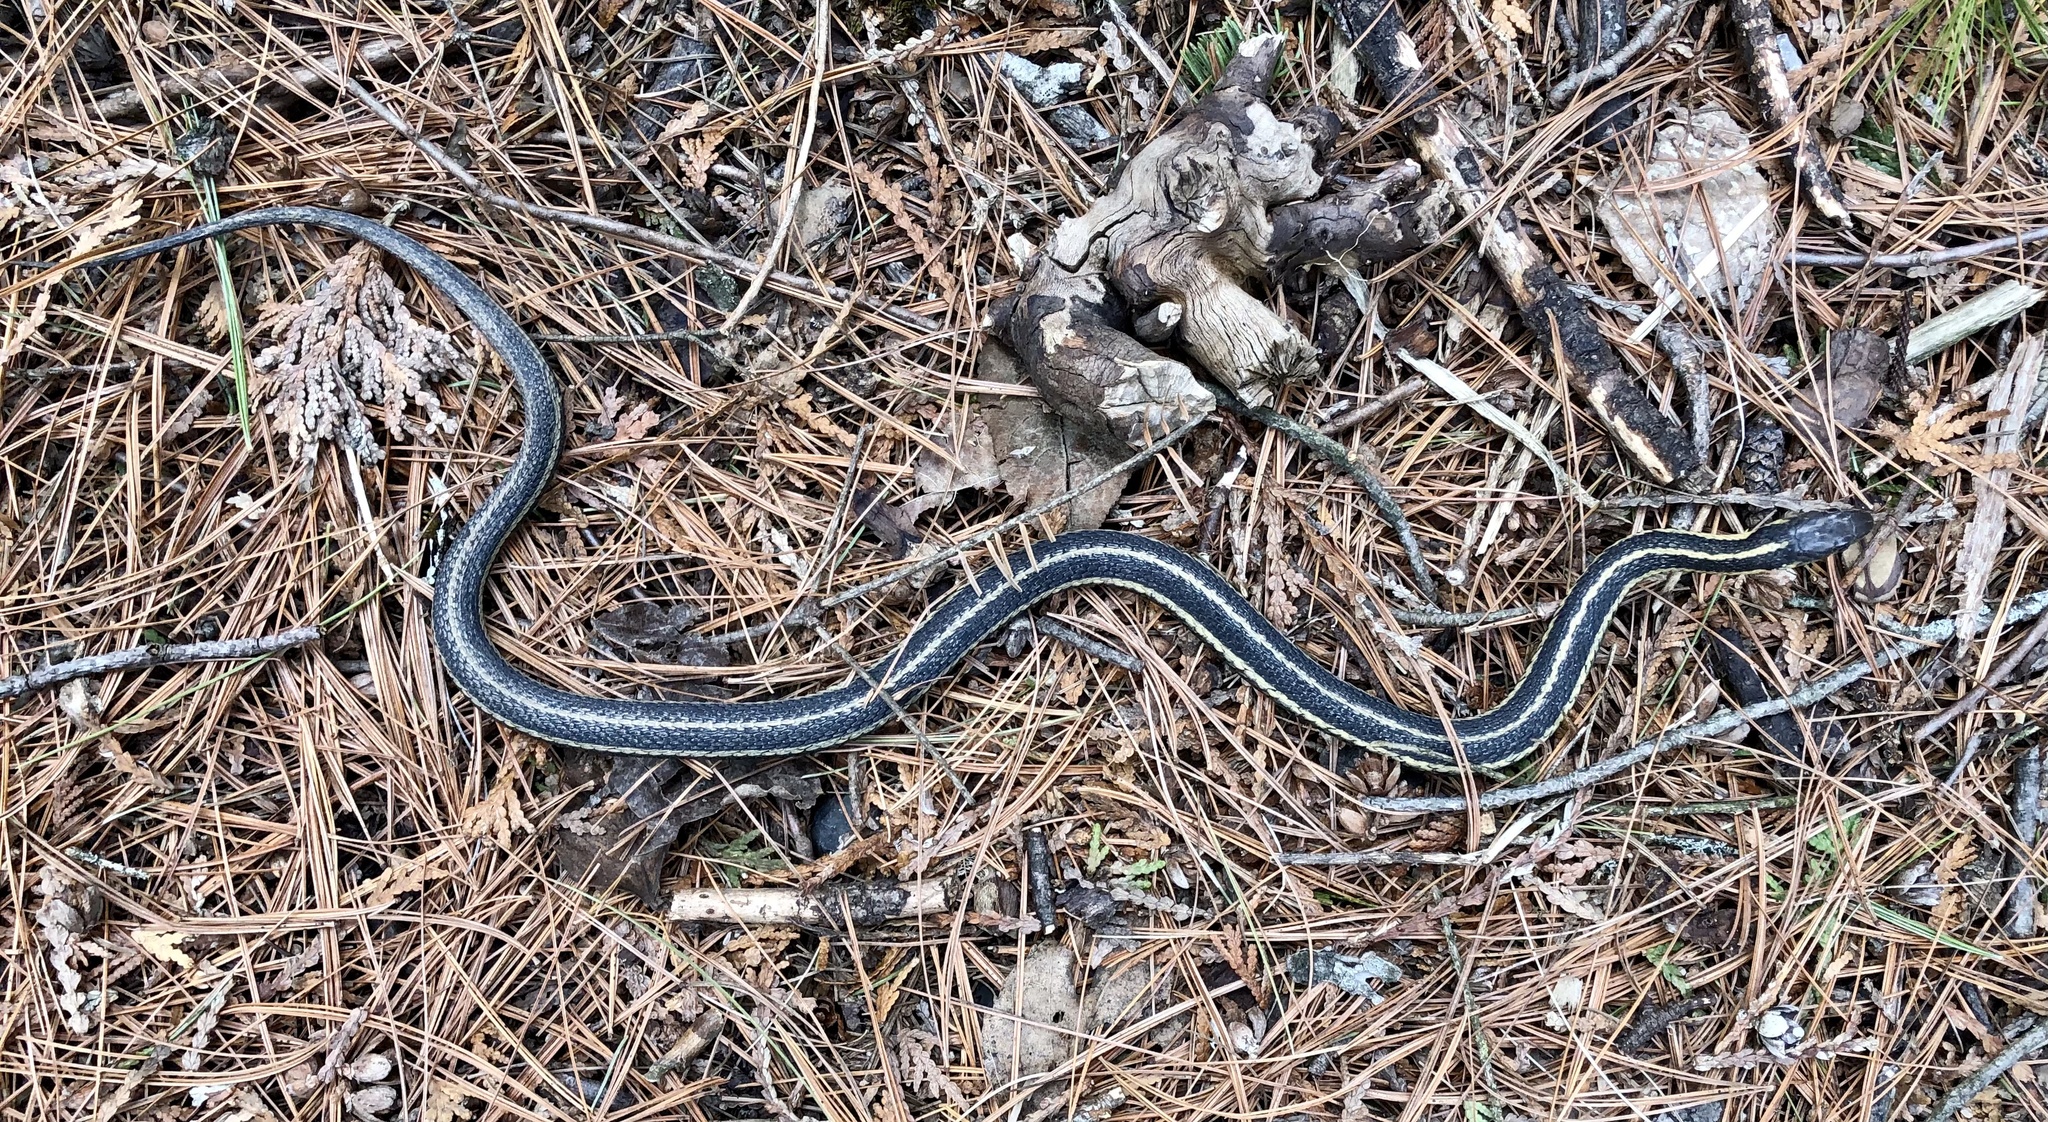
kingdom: Animalia
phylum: Chordata
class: Squamata
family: Colubridae
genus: Thamnophis
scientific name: Thamnophis sirtalis
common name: Common garter snake
